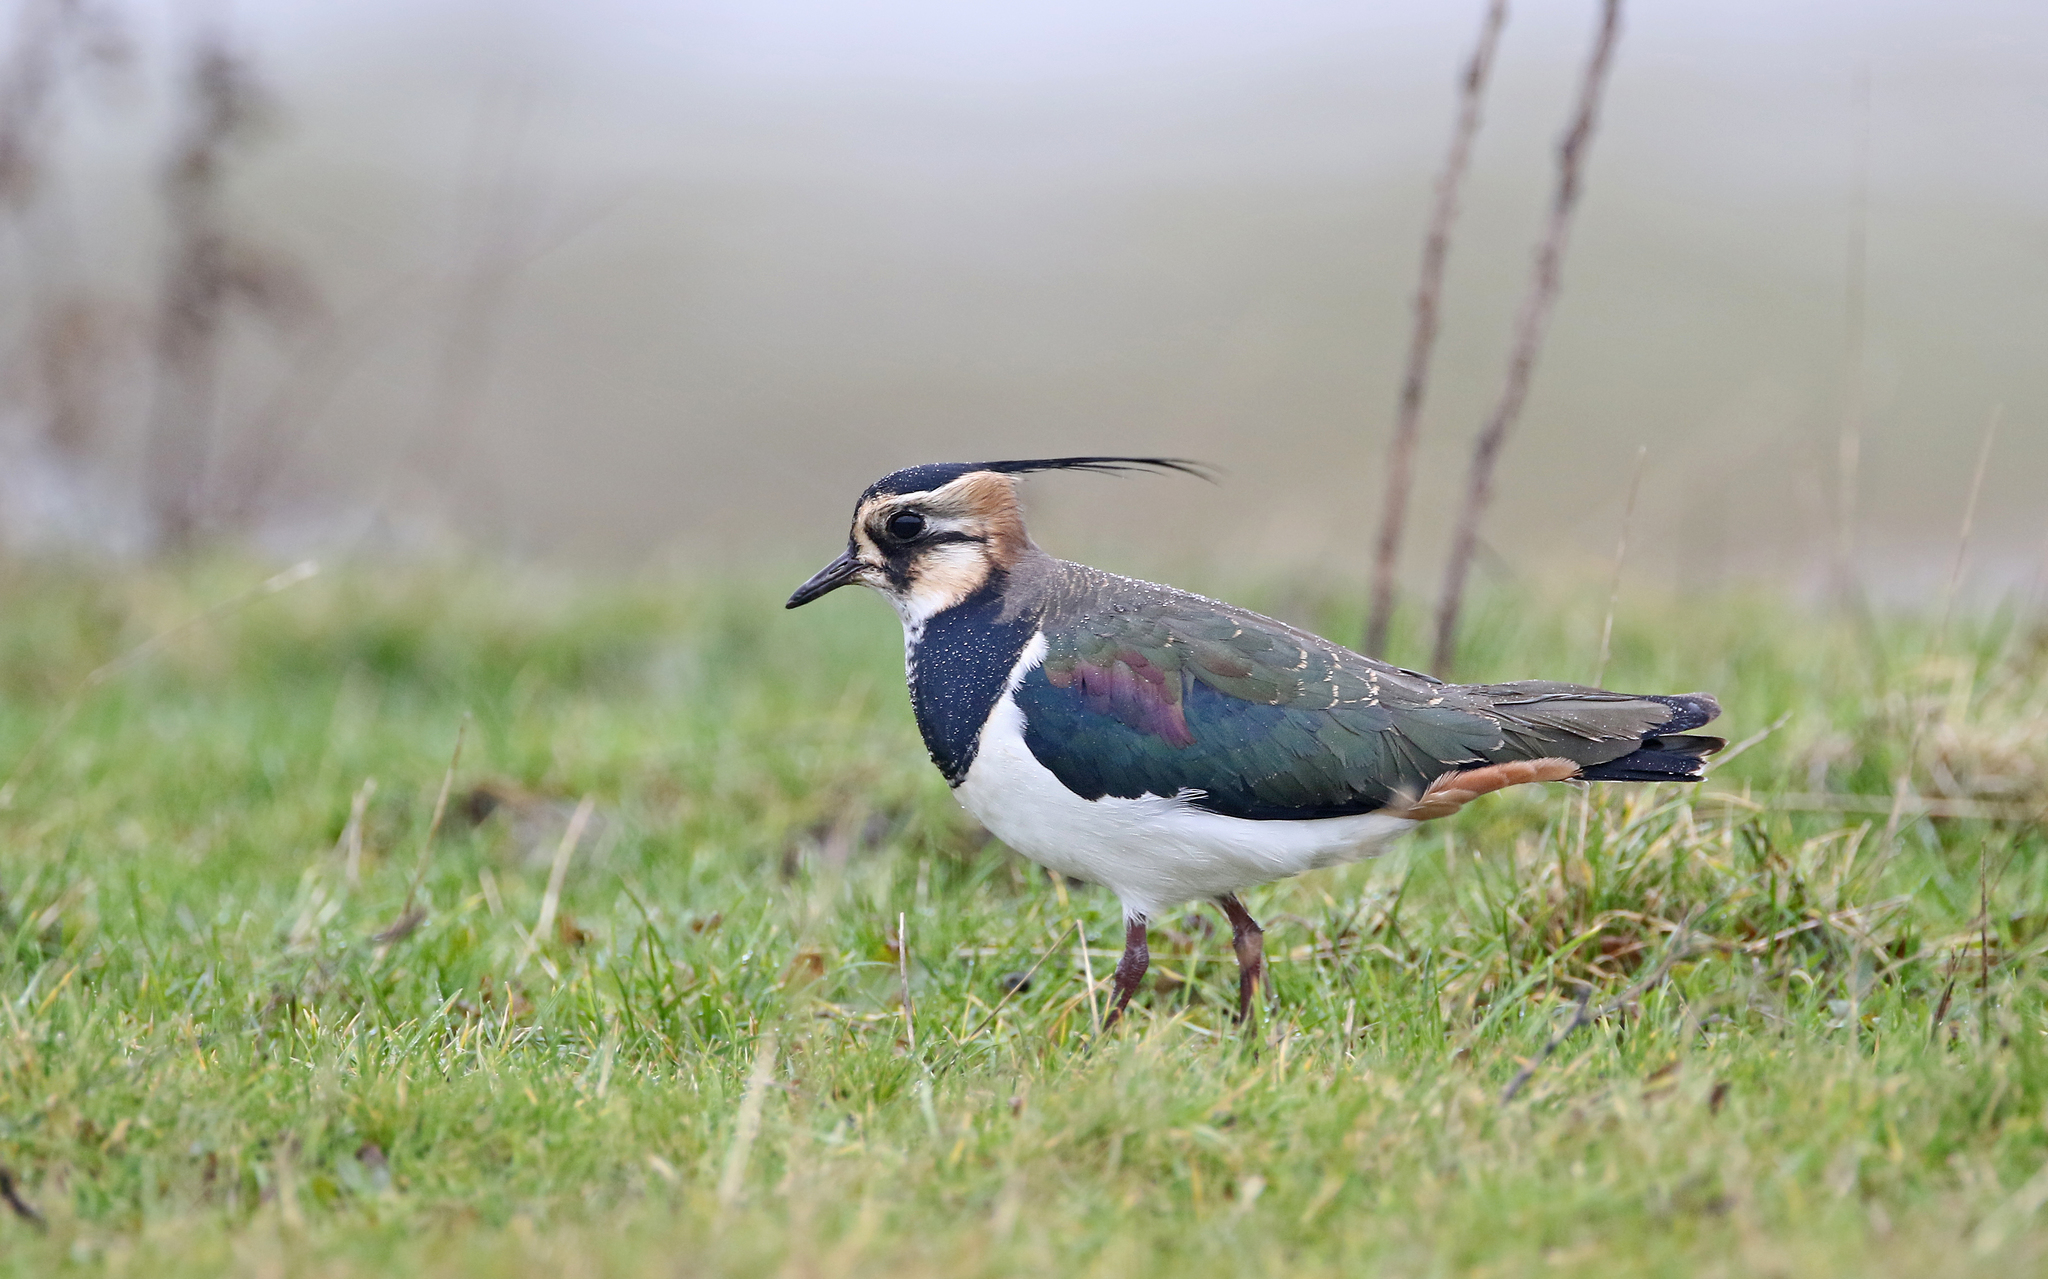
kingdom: Animalia
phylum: Chordata
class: Aves
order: Charadriiformes
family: Charadriidae
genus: Vanellus
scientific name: Vanellus vanellus
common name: Northern lapwing
